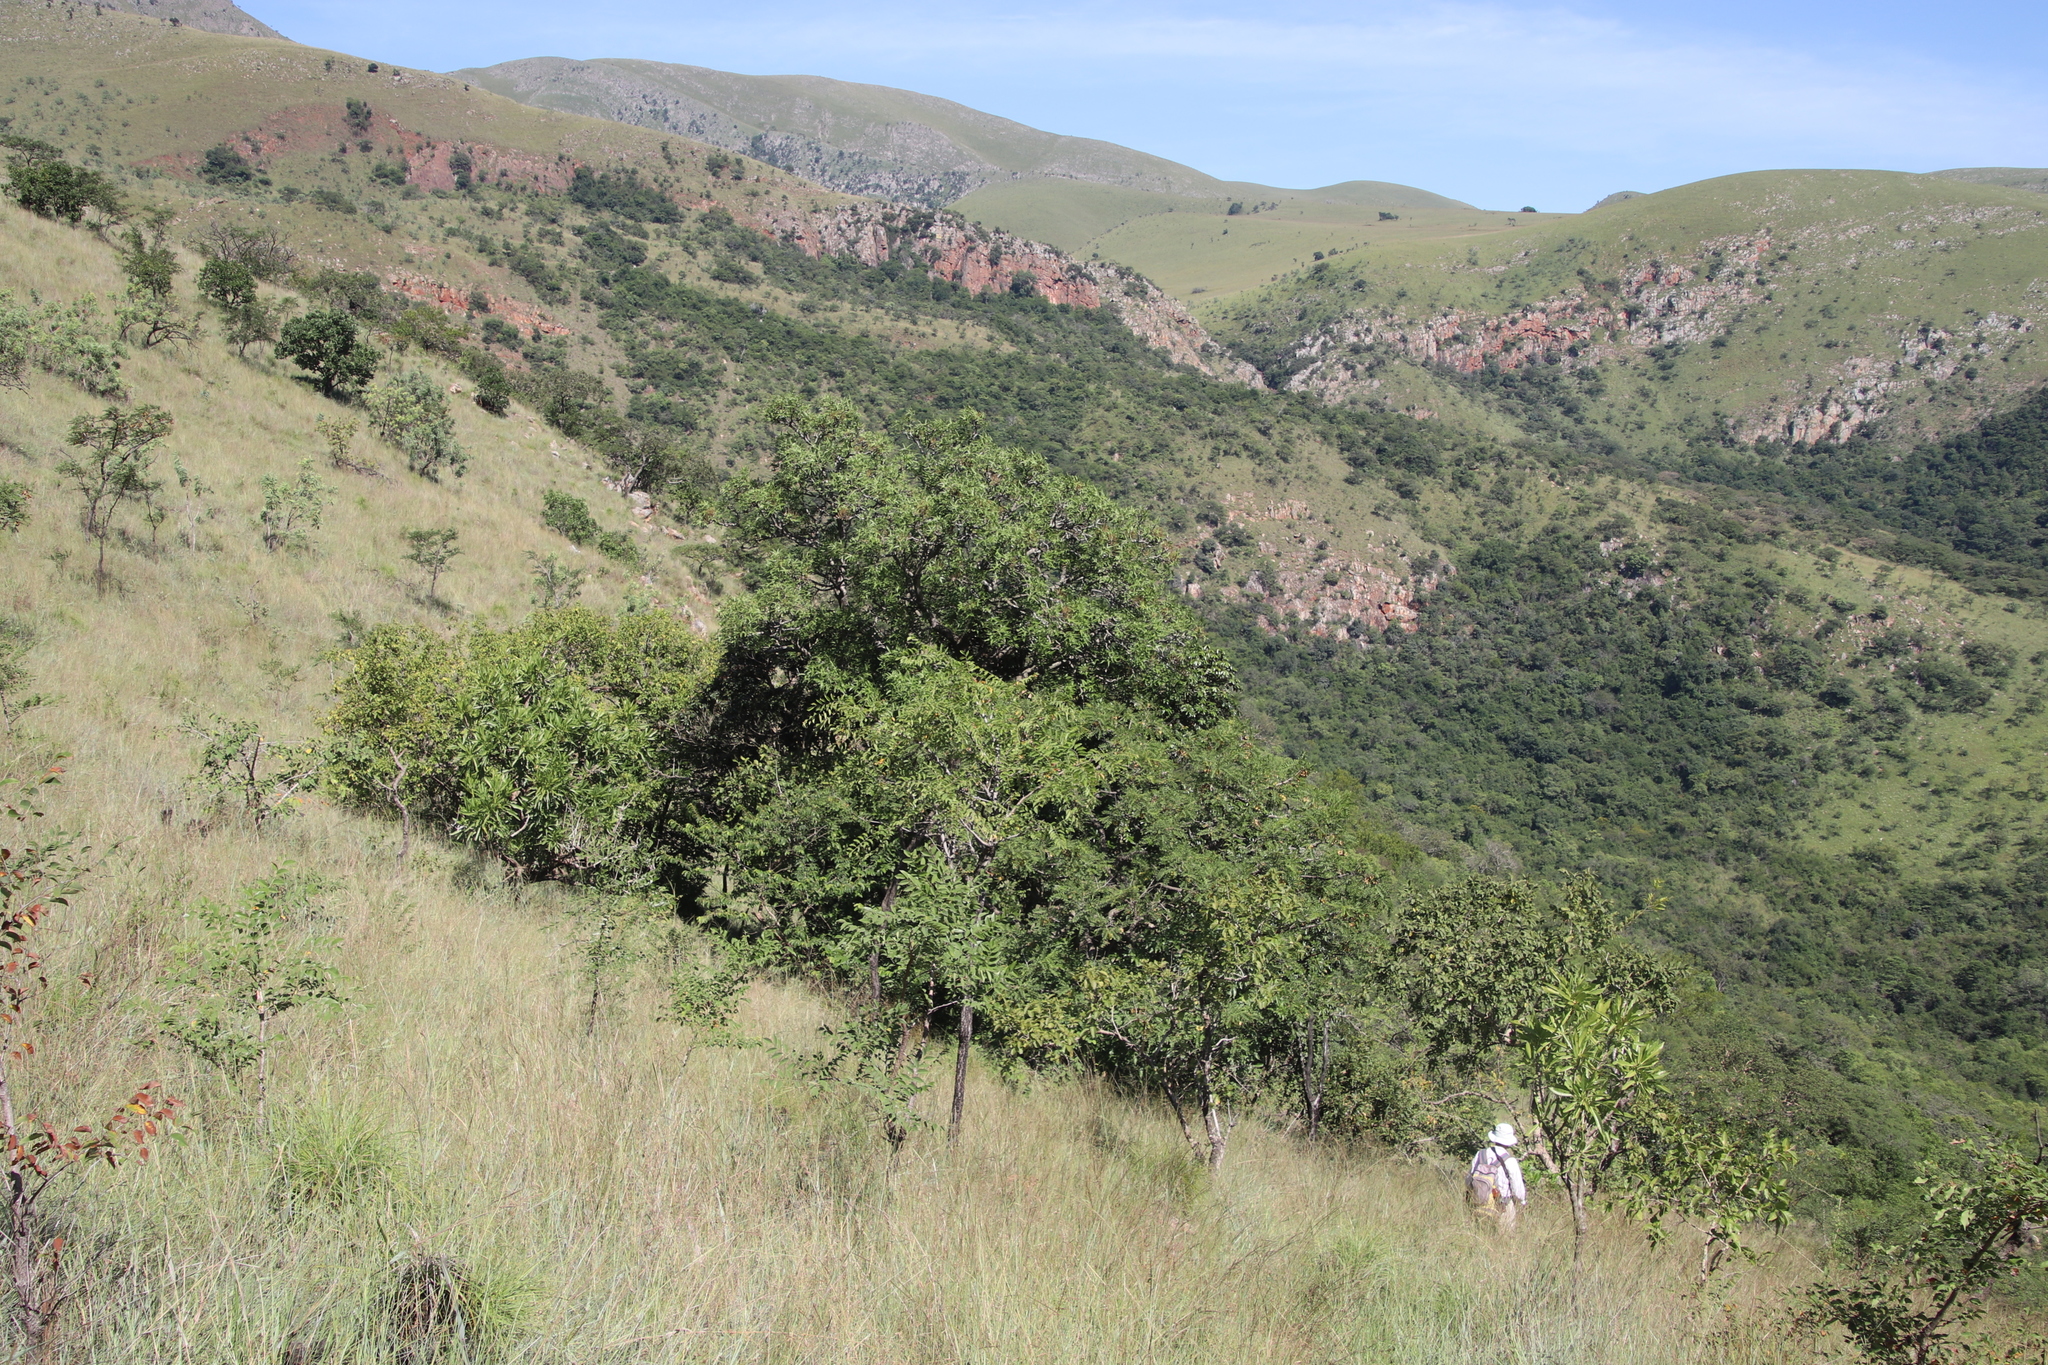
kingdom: Plantae
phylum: Tracheophyta
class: Magnoliopsida
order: Apiales
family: Araliaceae
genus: Cussonia
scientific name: Cussonia natalensis
